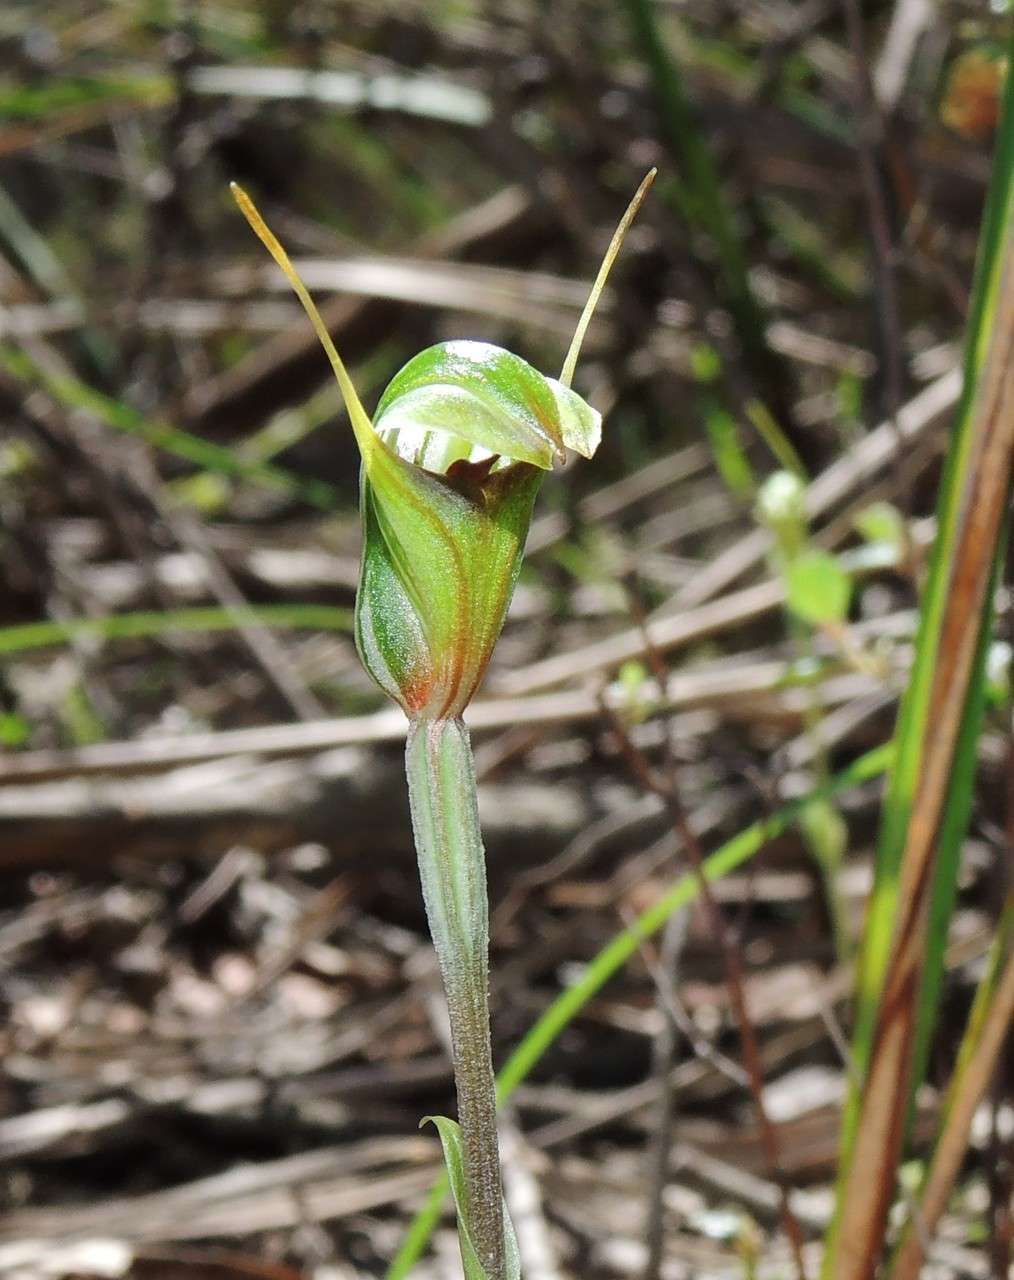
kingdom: Plantae
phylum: Tracheophyta
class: Liliopsida
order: Asparagales
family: Orchidaceae
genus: Pterostylis
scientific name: Pterostylis concinna
